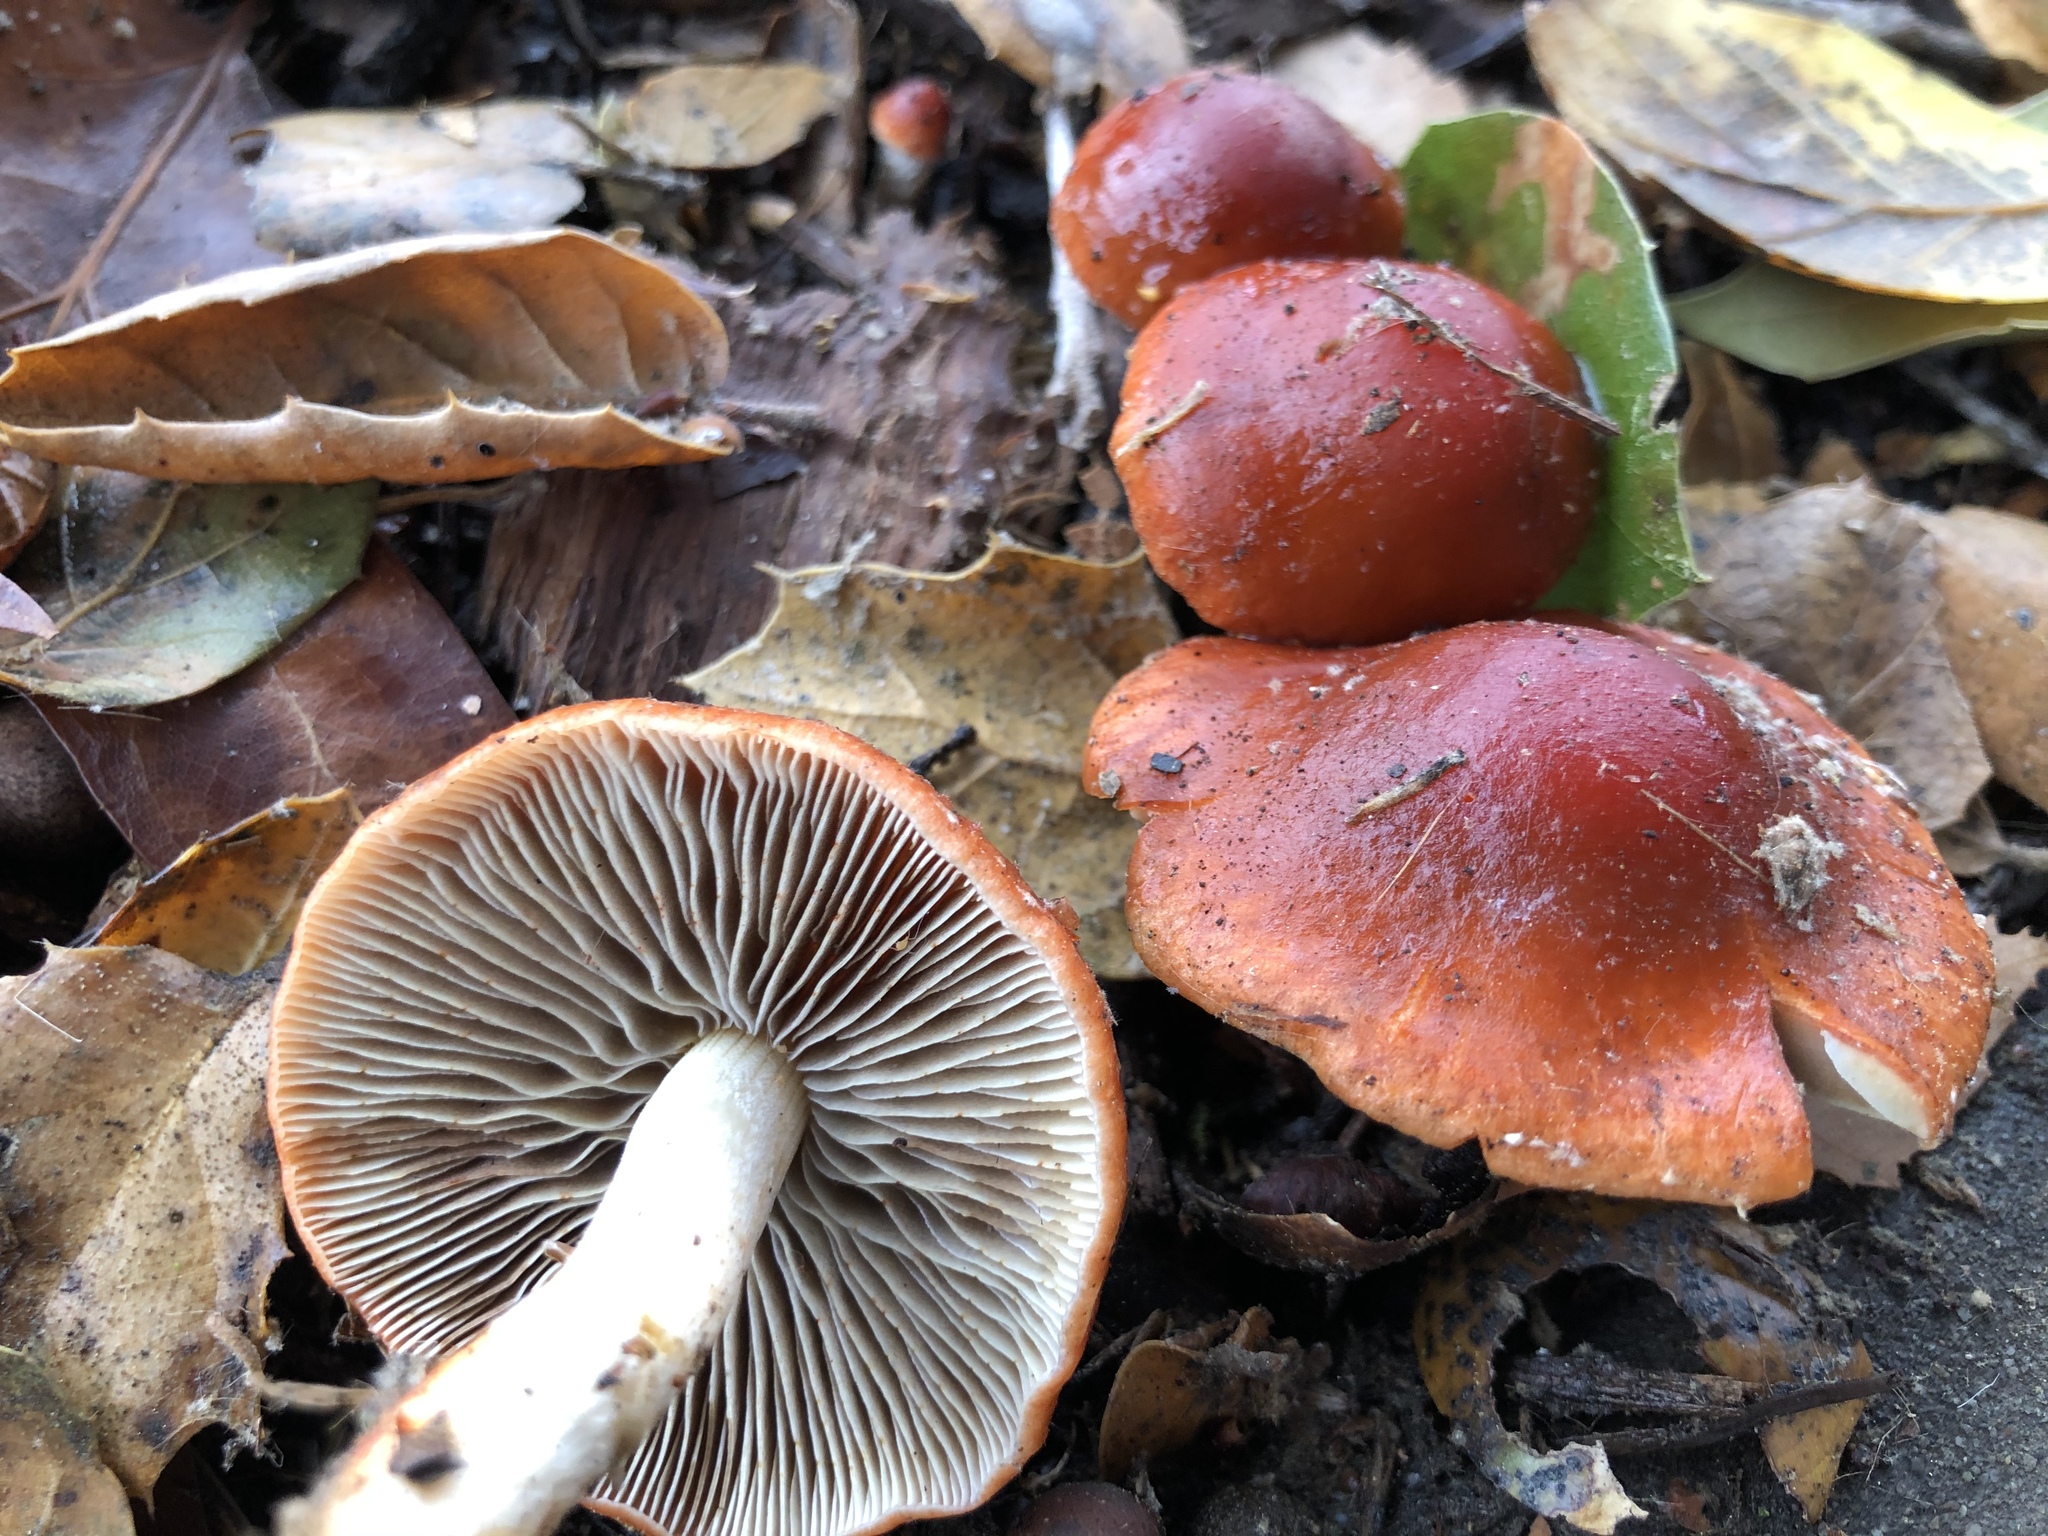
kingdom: Fungi
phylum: Basidiomycota
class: Agaricomycetes
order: Agaricales
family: Strophariaceae
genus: Leratiomyces
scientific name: Leratiomyces ceres
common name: Redlead roundhead
